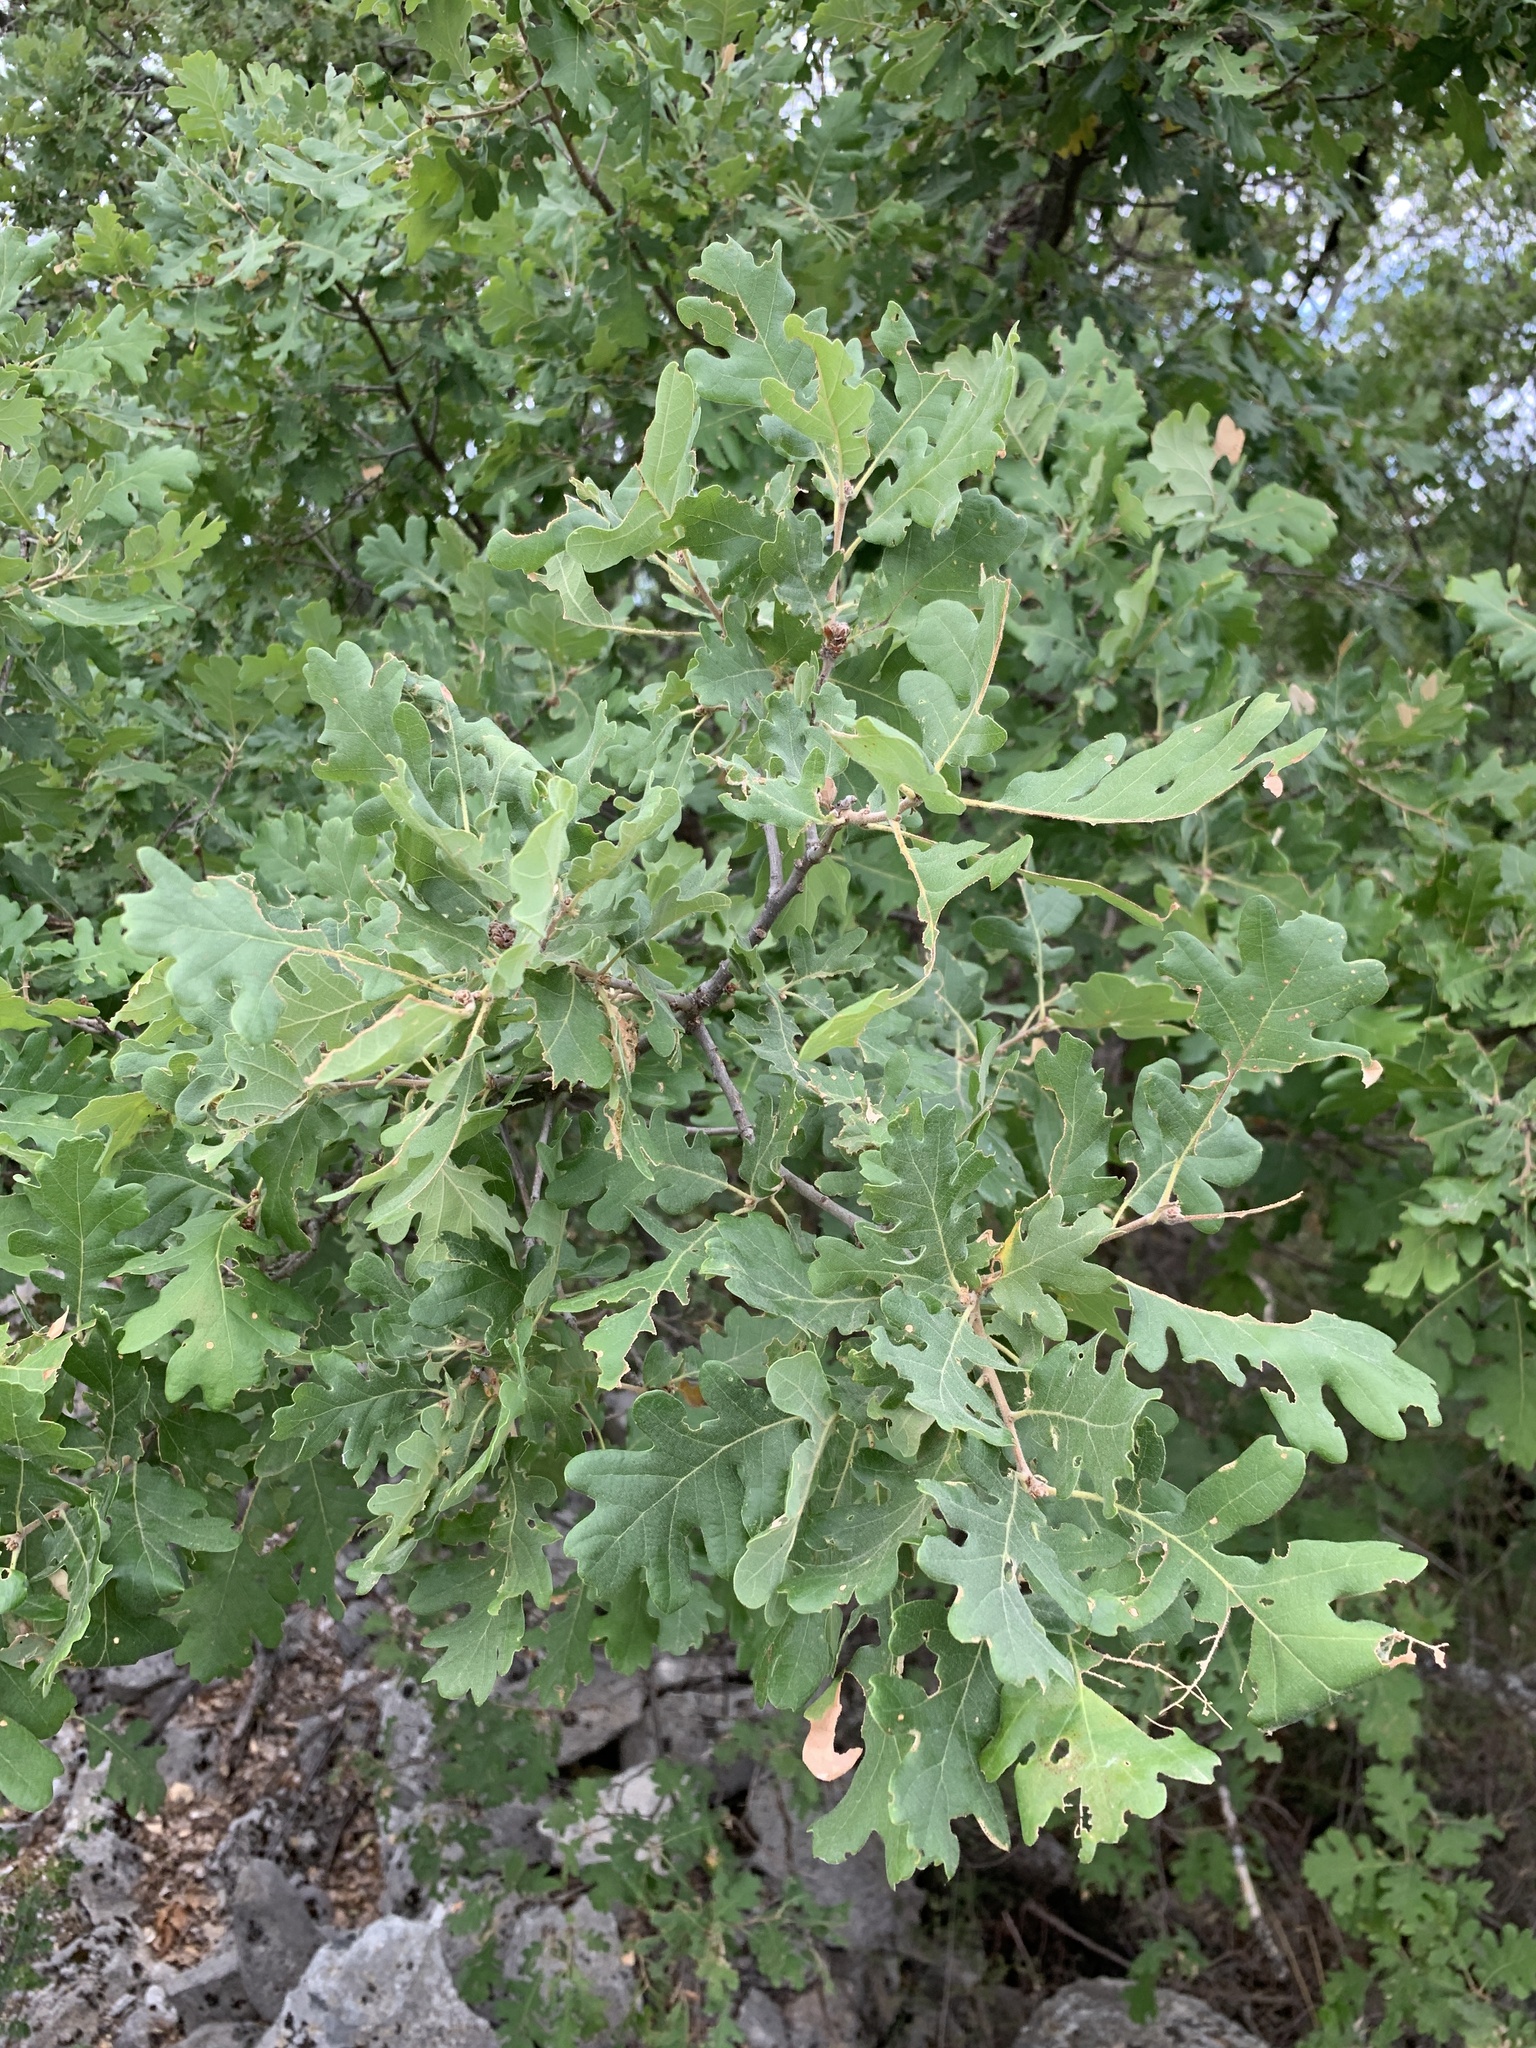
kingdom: Plantae
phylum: Tracheophyta
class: Magnoliopsida
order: Fagales
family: Fagaceae
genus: Quercus
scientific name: Quercus pubescens
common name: Downy oak
